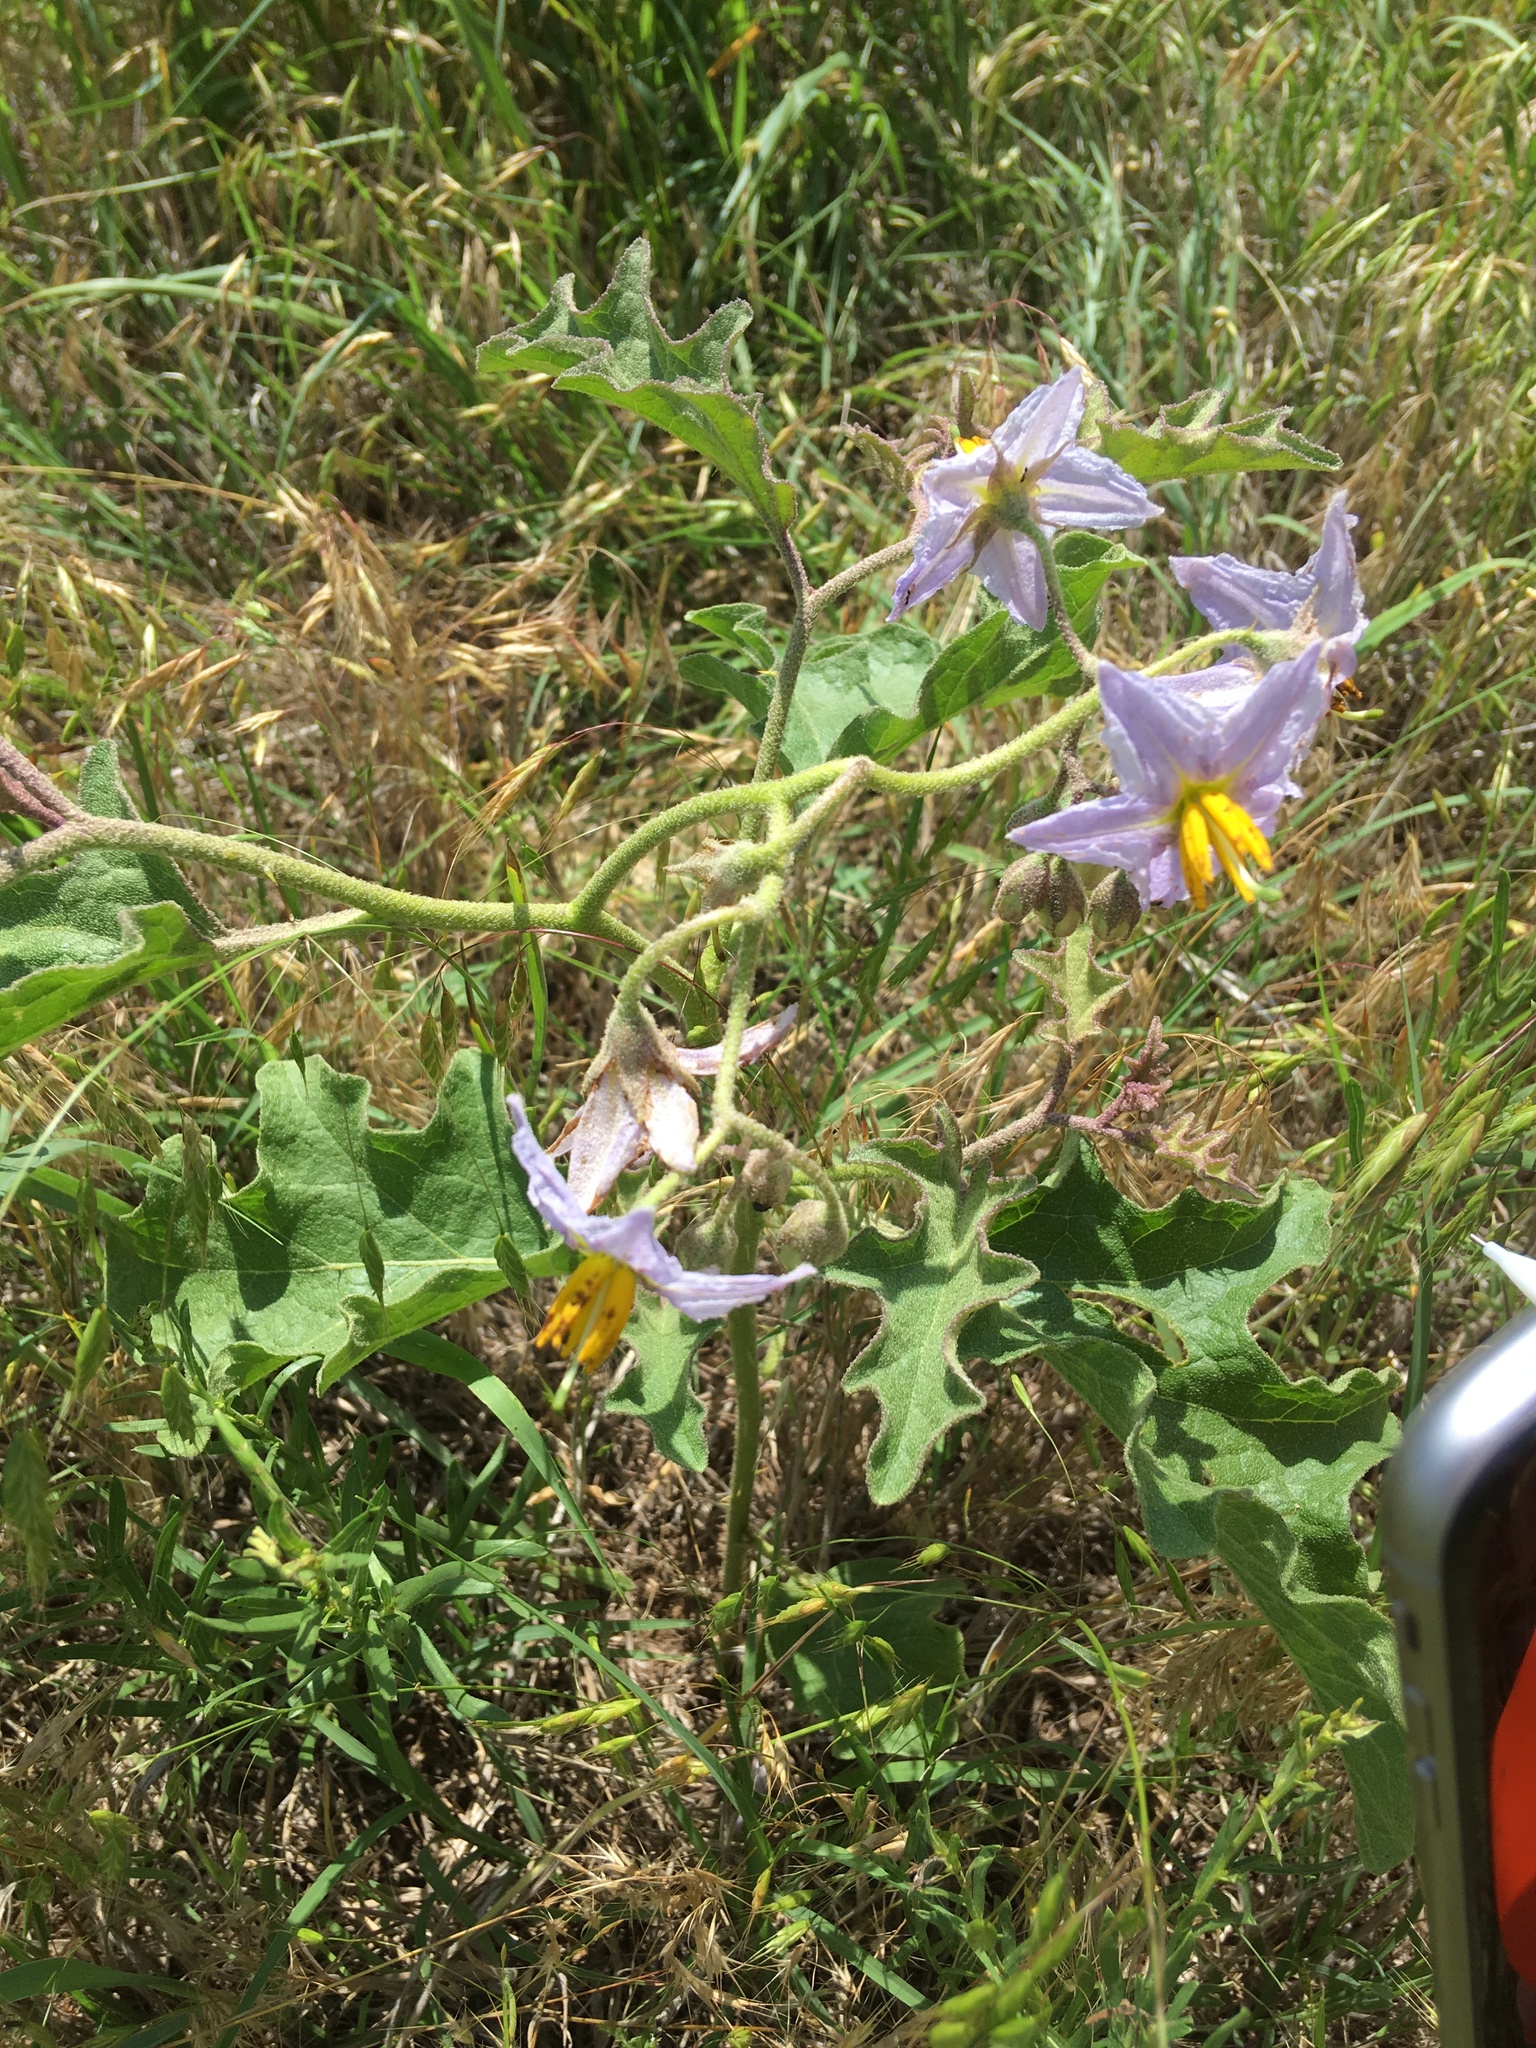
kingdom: Plantae
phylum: Tracheophyta
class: Magnoliopsida
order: Solanales
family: Solanaceae
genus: Solanum
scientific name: Solanum dimidiatum
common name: Carolina horse-nettle
